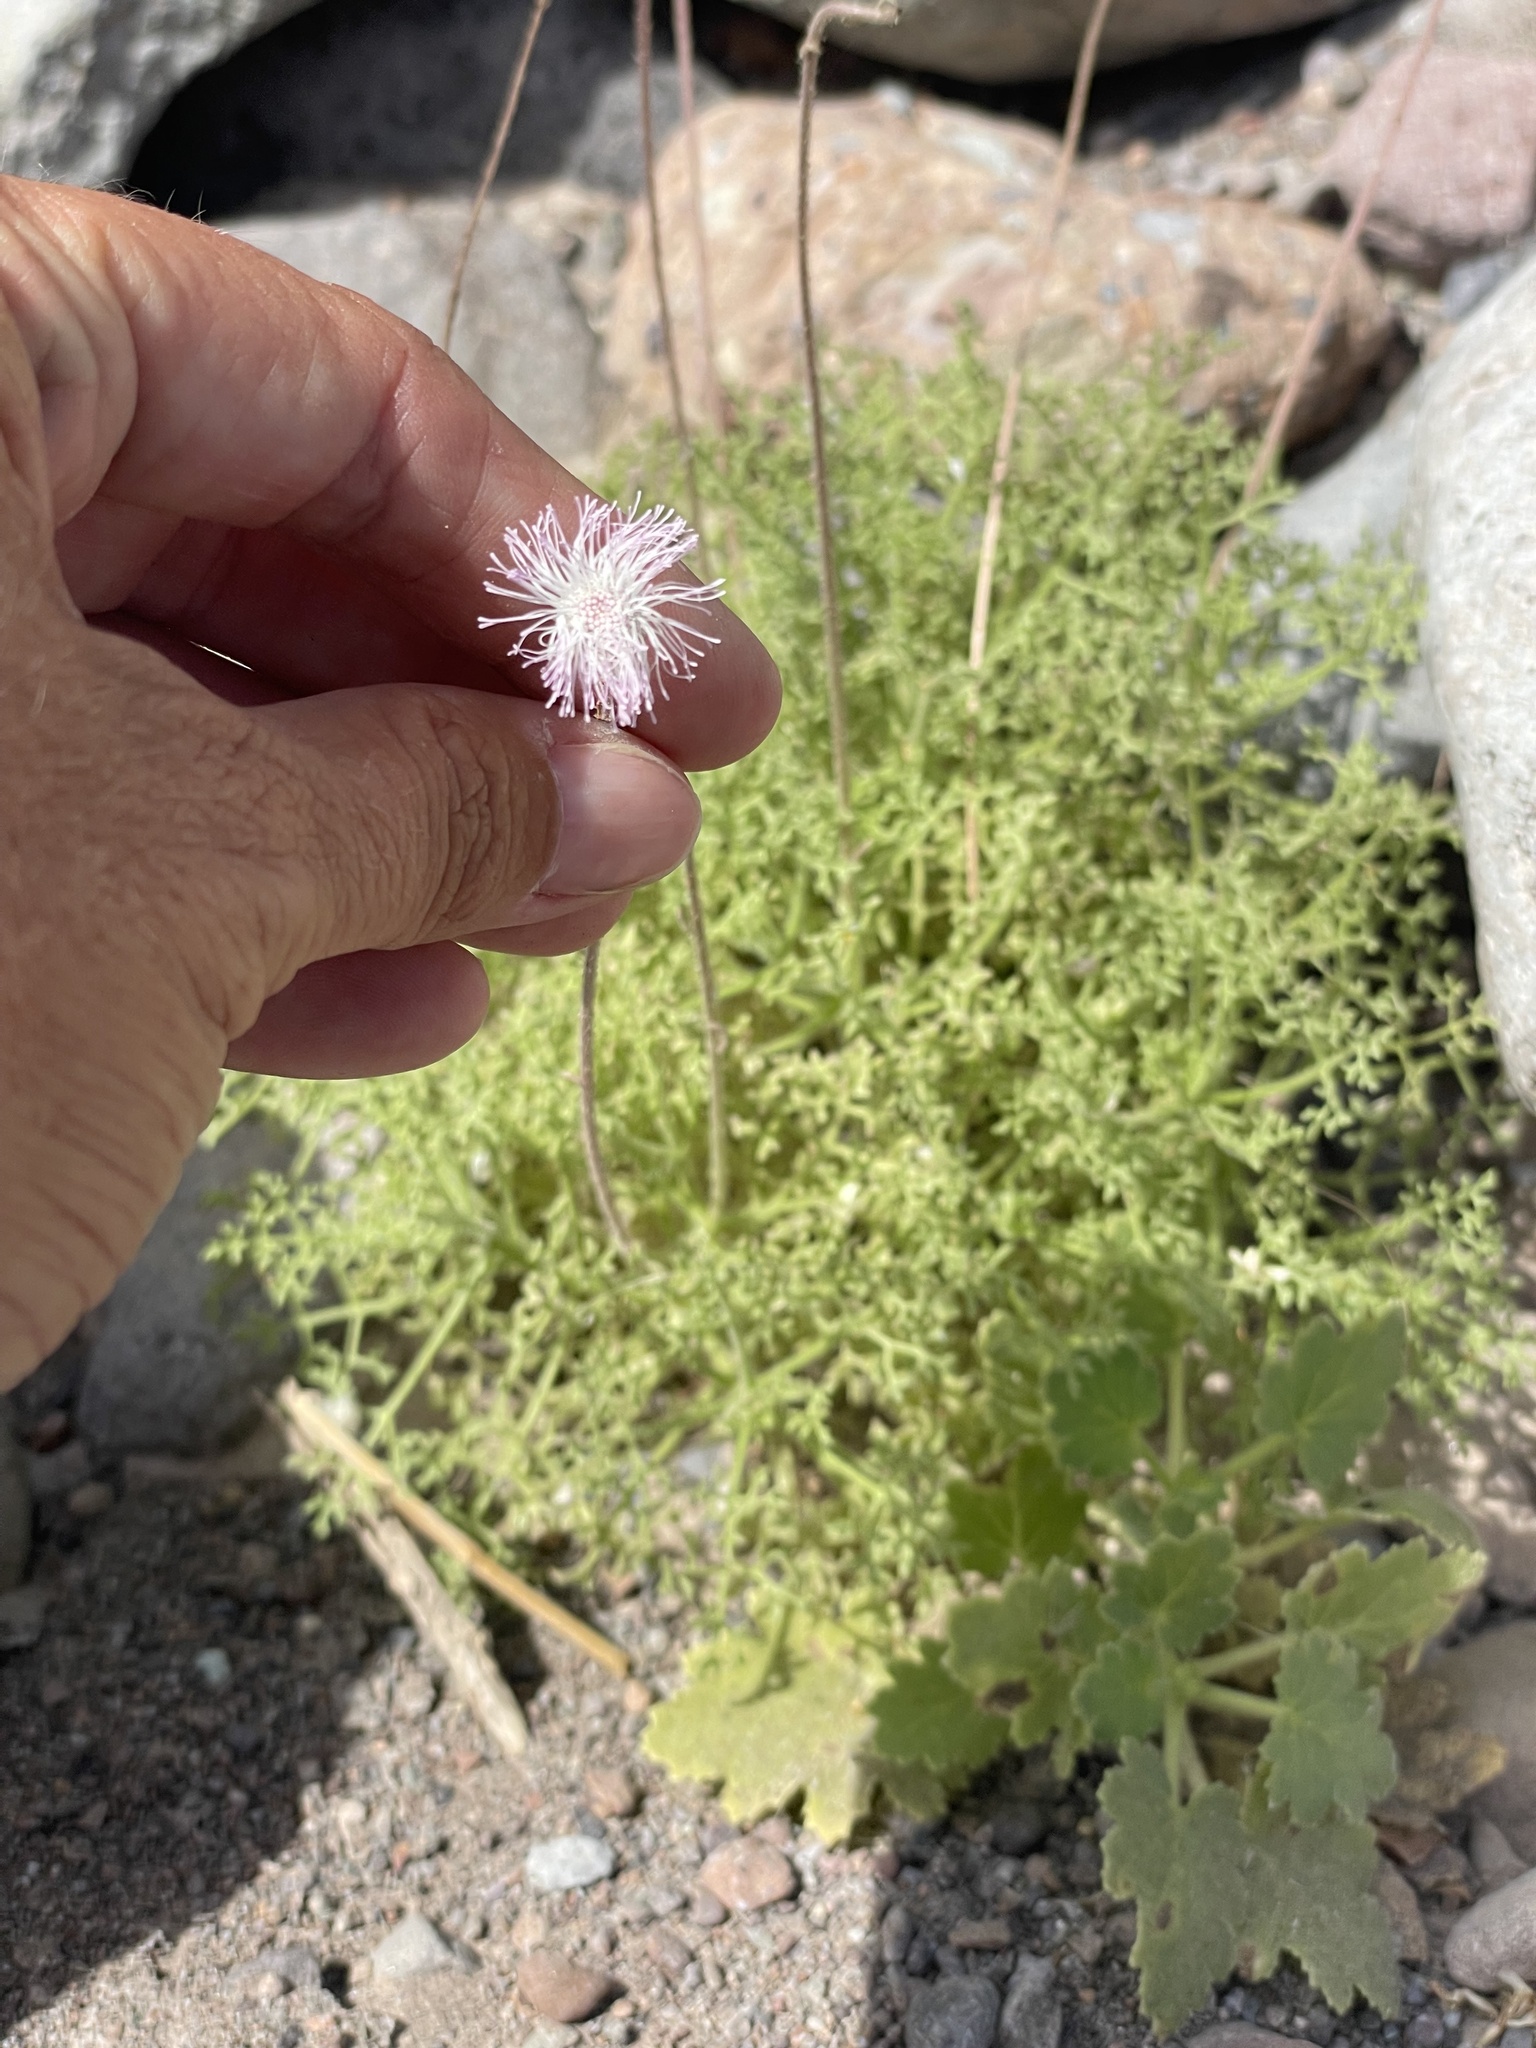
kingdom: Plantae
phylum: Tracheophyta
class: Magnoliopsida
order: Asterales
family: Asteraceae
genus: Hofmeisteria
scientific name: Hofmeisteria fasciculata
